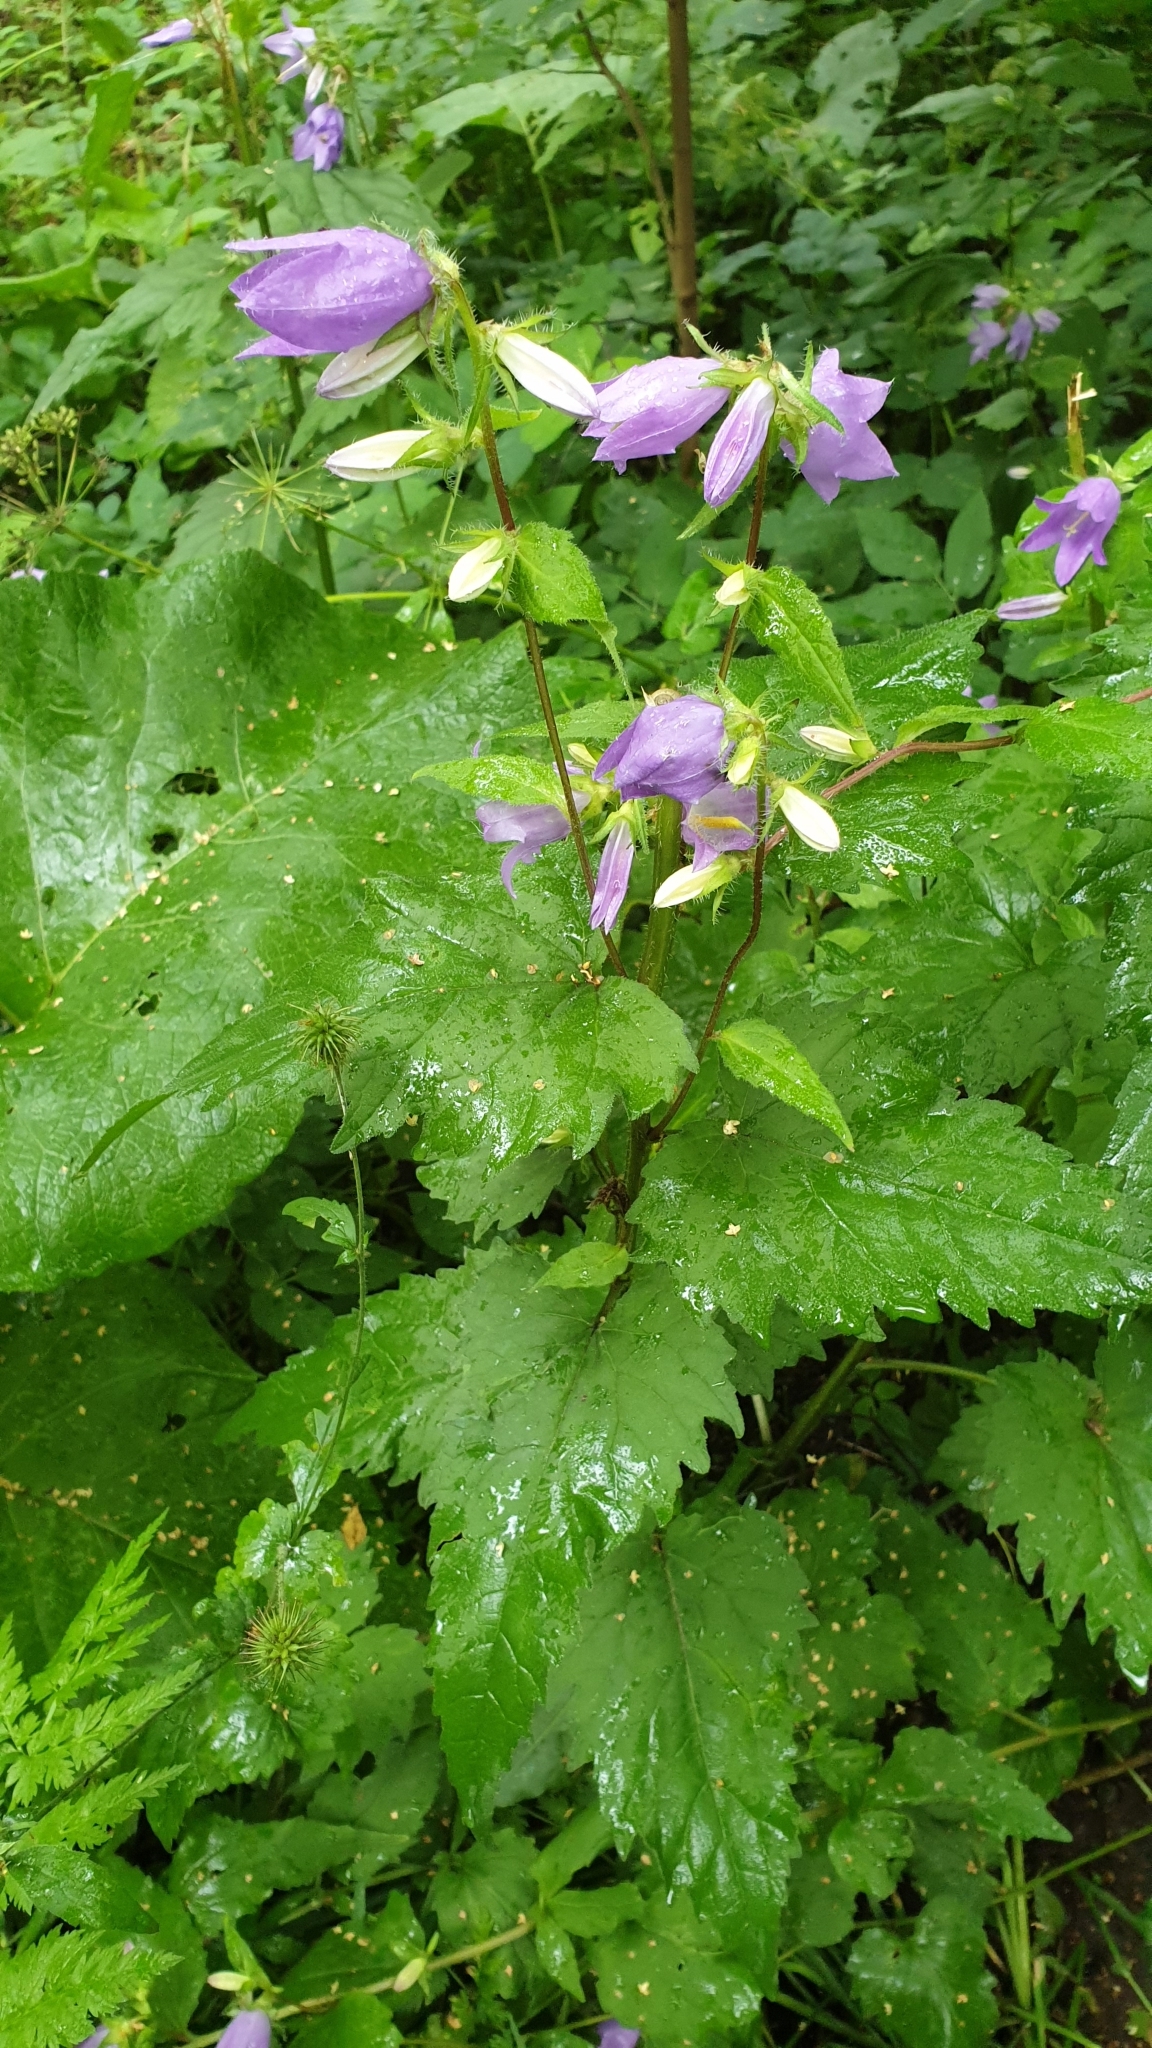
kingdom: Plantae
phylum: Tracheophyta
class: Magnoliopsida
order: Asterales
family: Campanulaceae
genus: Campanula
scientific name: Campanula trachelium
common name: Nettle-leaved bellflower
